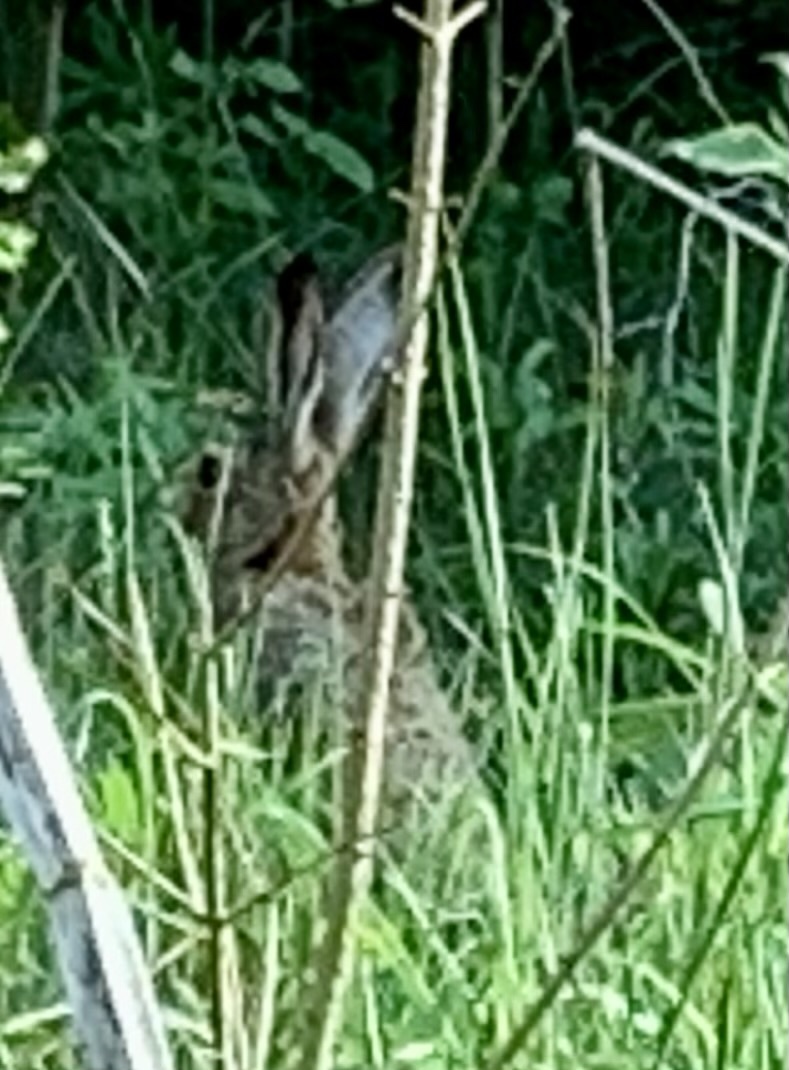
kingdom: Animalia
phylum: Chordata
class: Mammalia
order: Lagomorpha
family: Leporidae
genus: Lepus
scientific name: Lepus europaeus
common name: European hare
